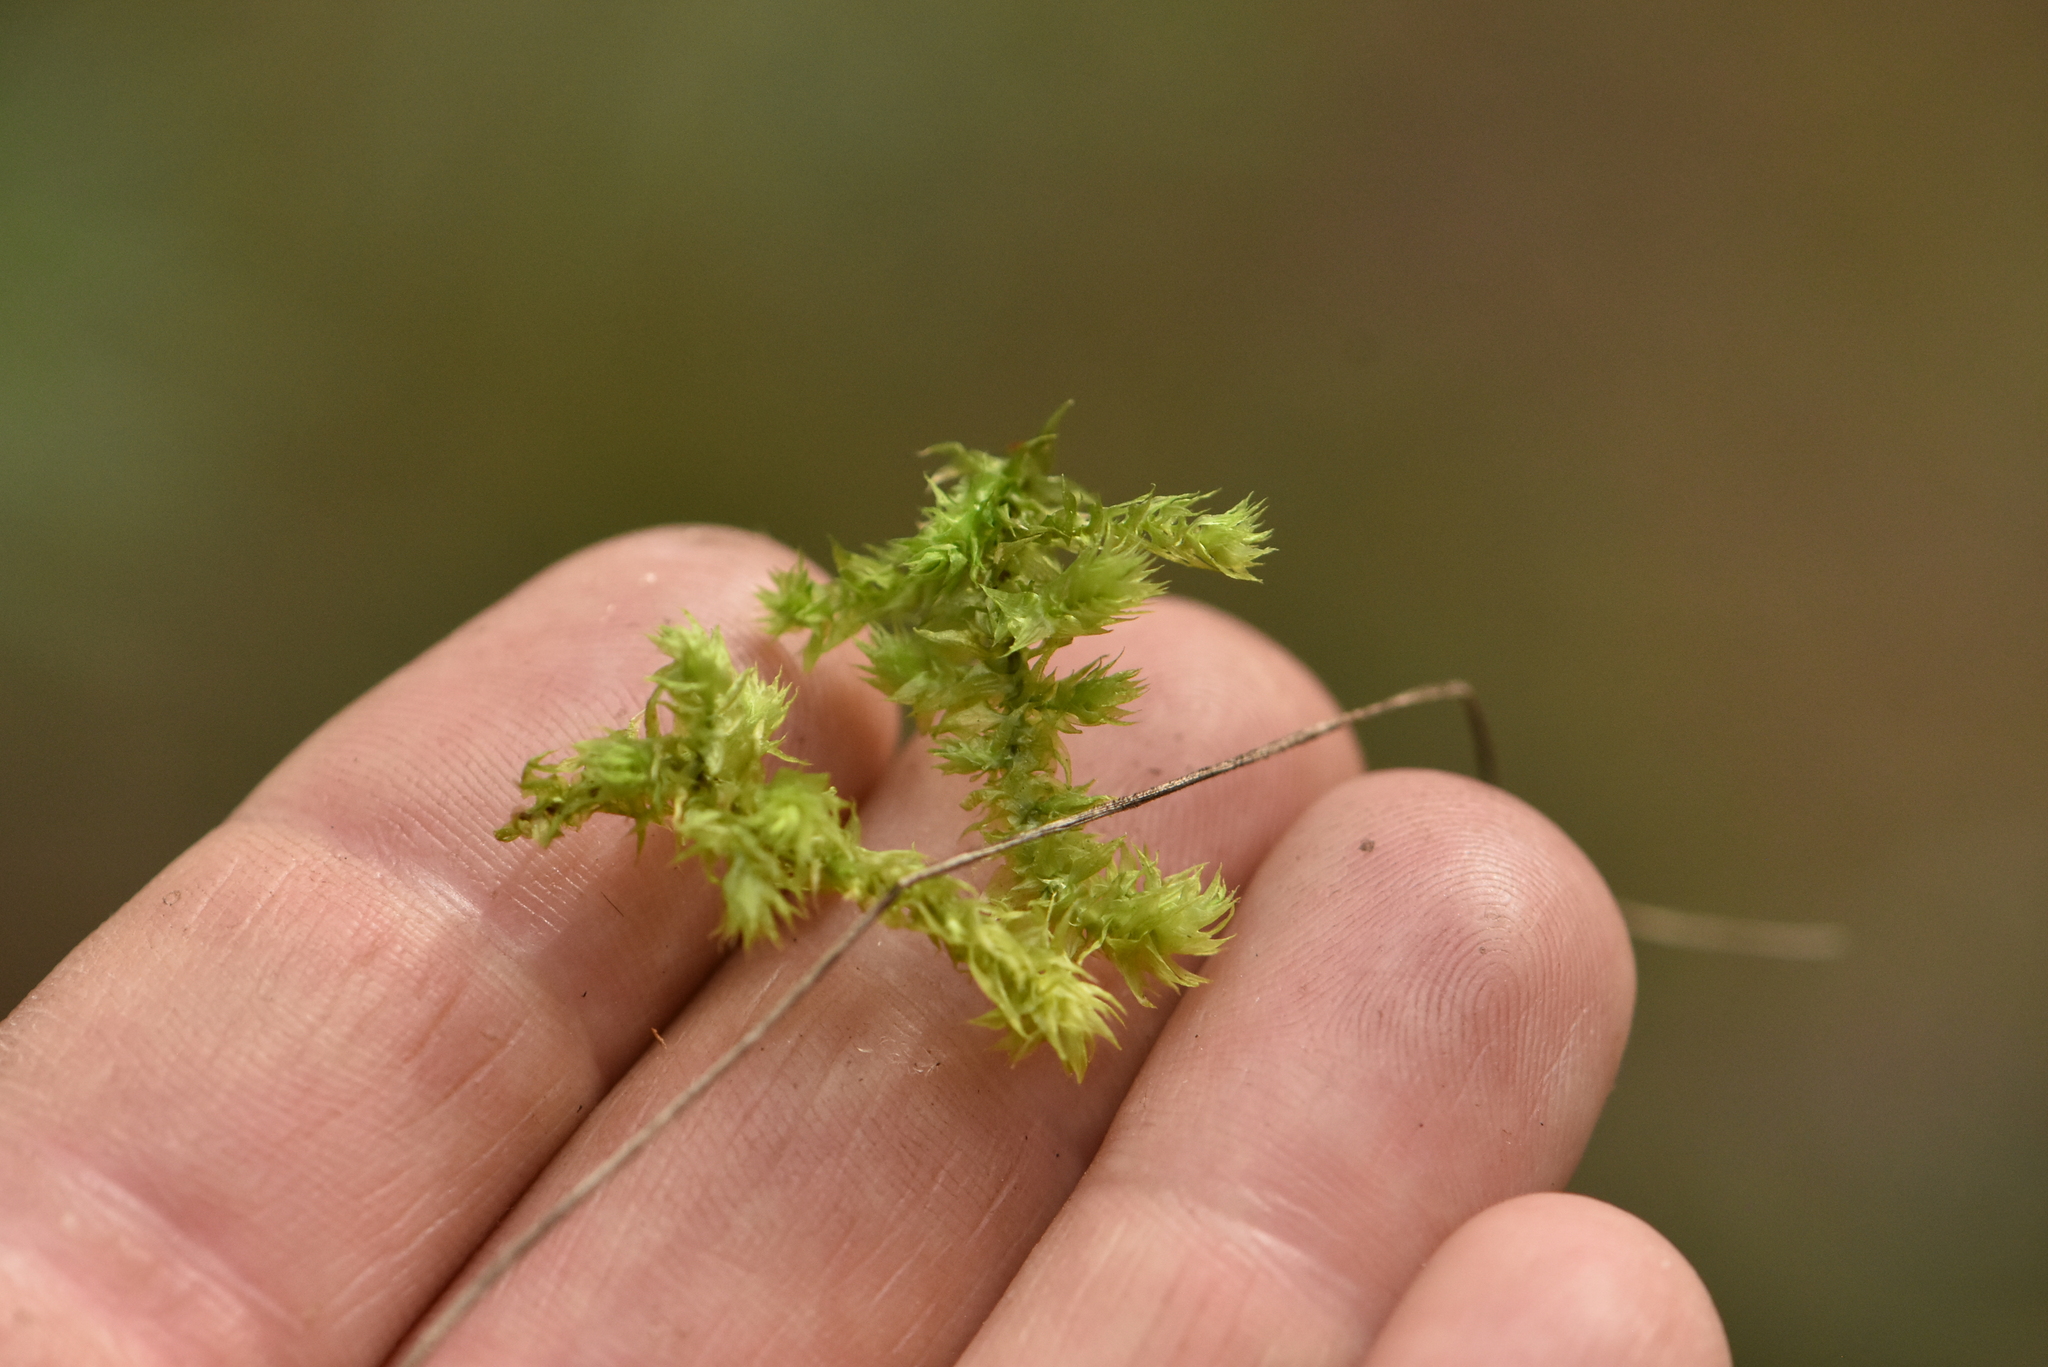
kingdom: Plantae
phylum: Bryophyta
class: Bryopsida
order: Hypnales
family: Hylocomiaceae
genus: Hylocomiadelphus
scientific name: Hylocomiadelphus triquetrus
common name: Rough goose neck moss
